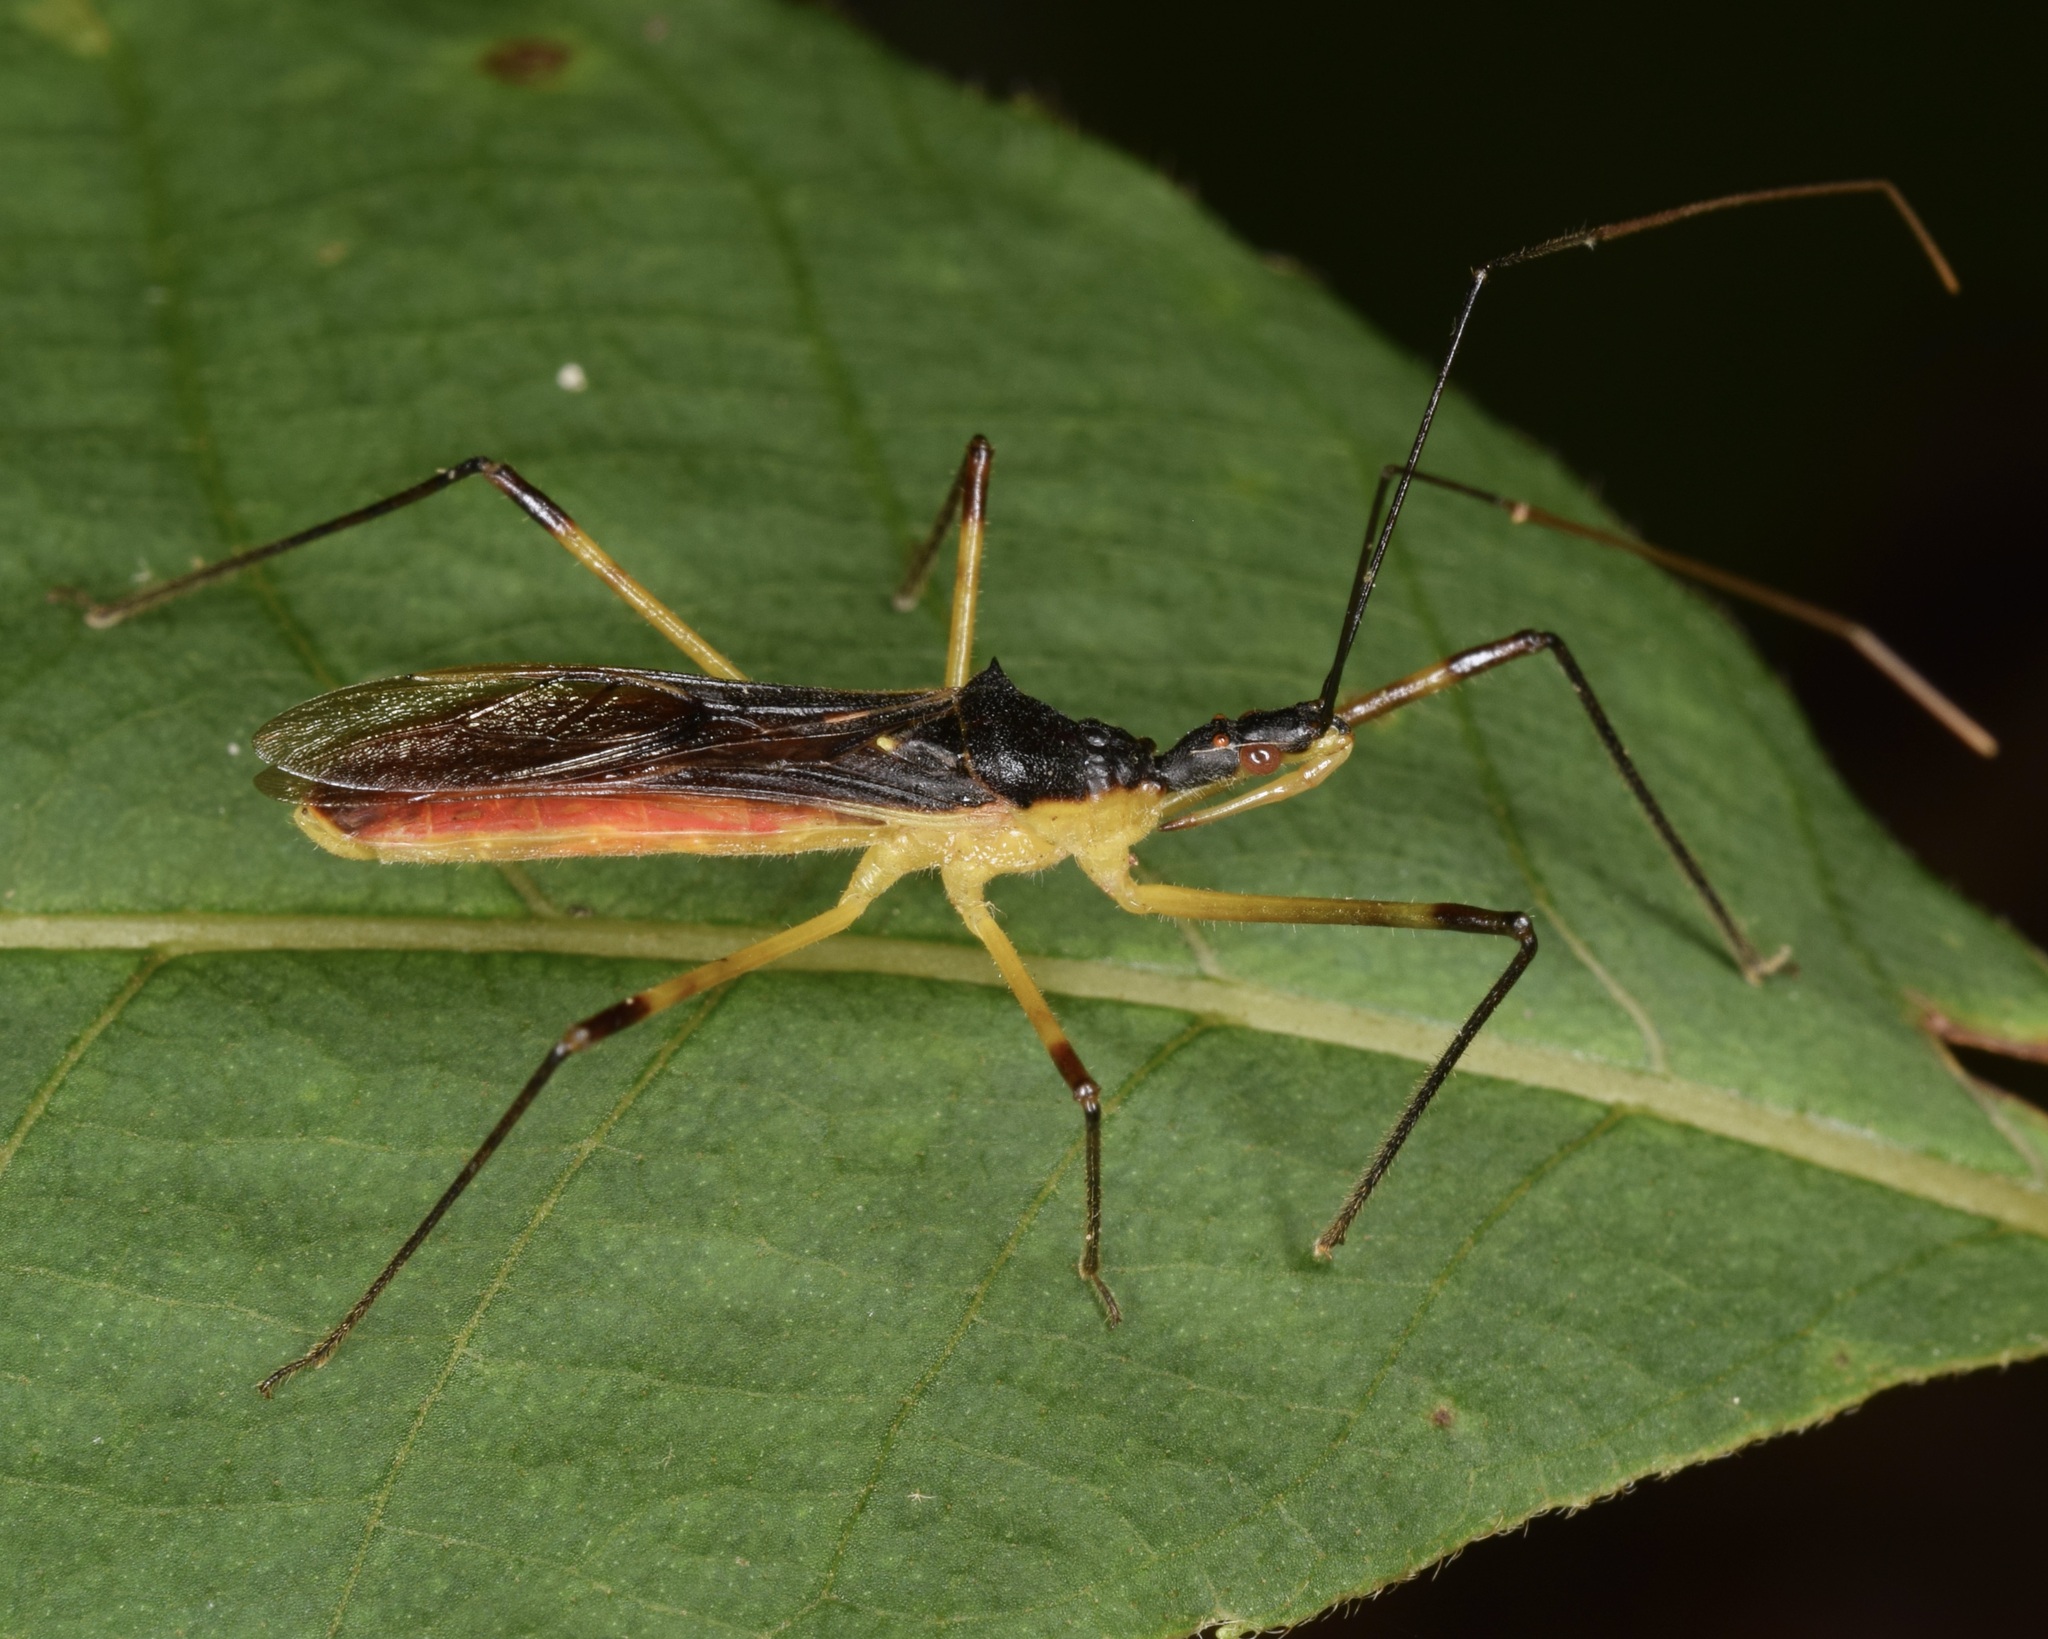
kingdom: Animalia
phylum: Arthropoda
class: Insecta
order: Hemiptera
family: Reduviidae
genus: Zelus
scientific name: Zelus luridus
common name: Pale green assassin bug
